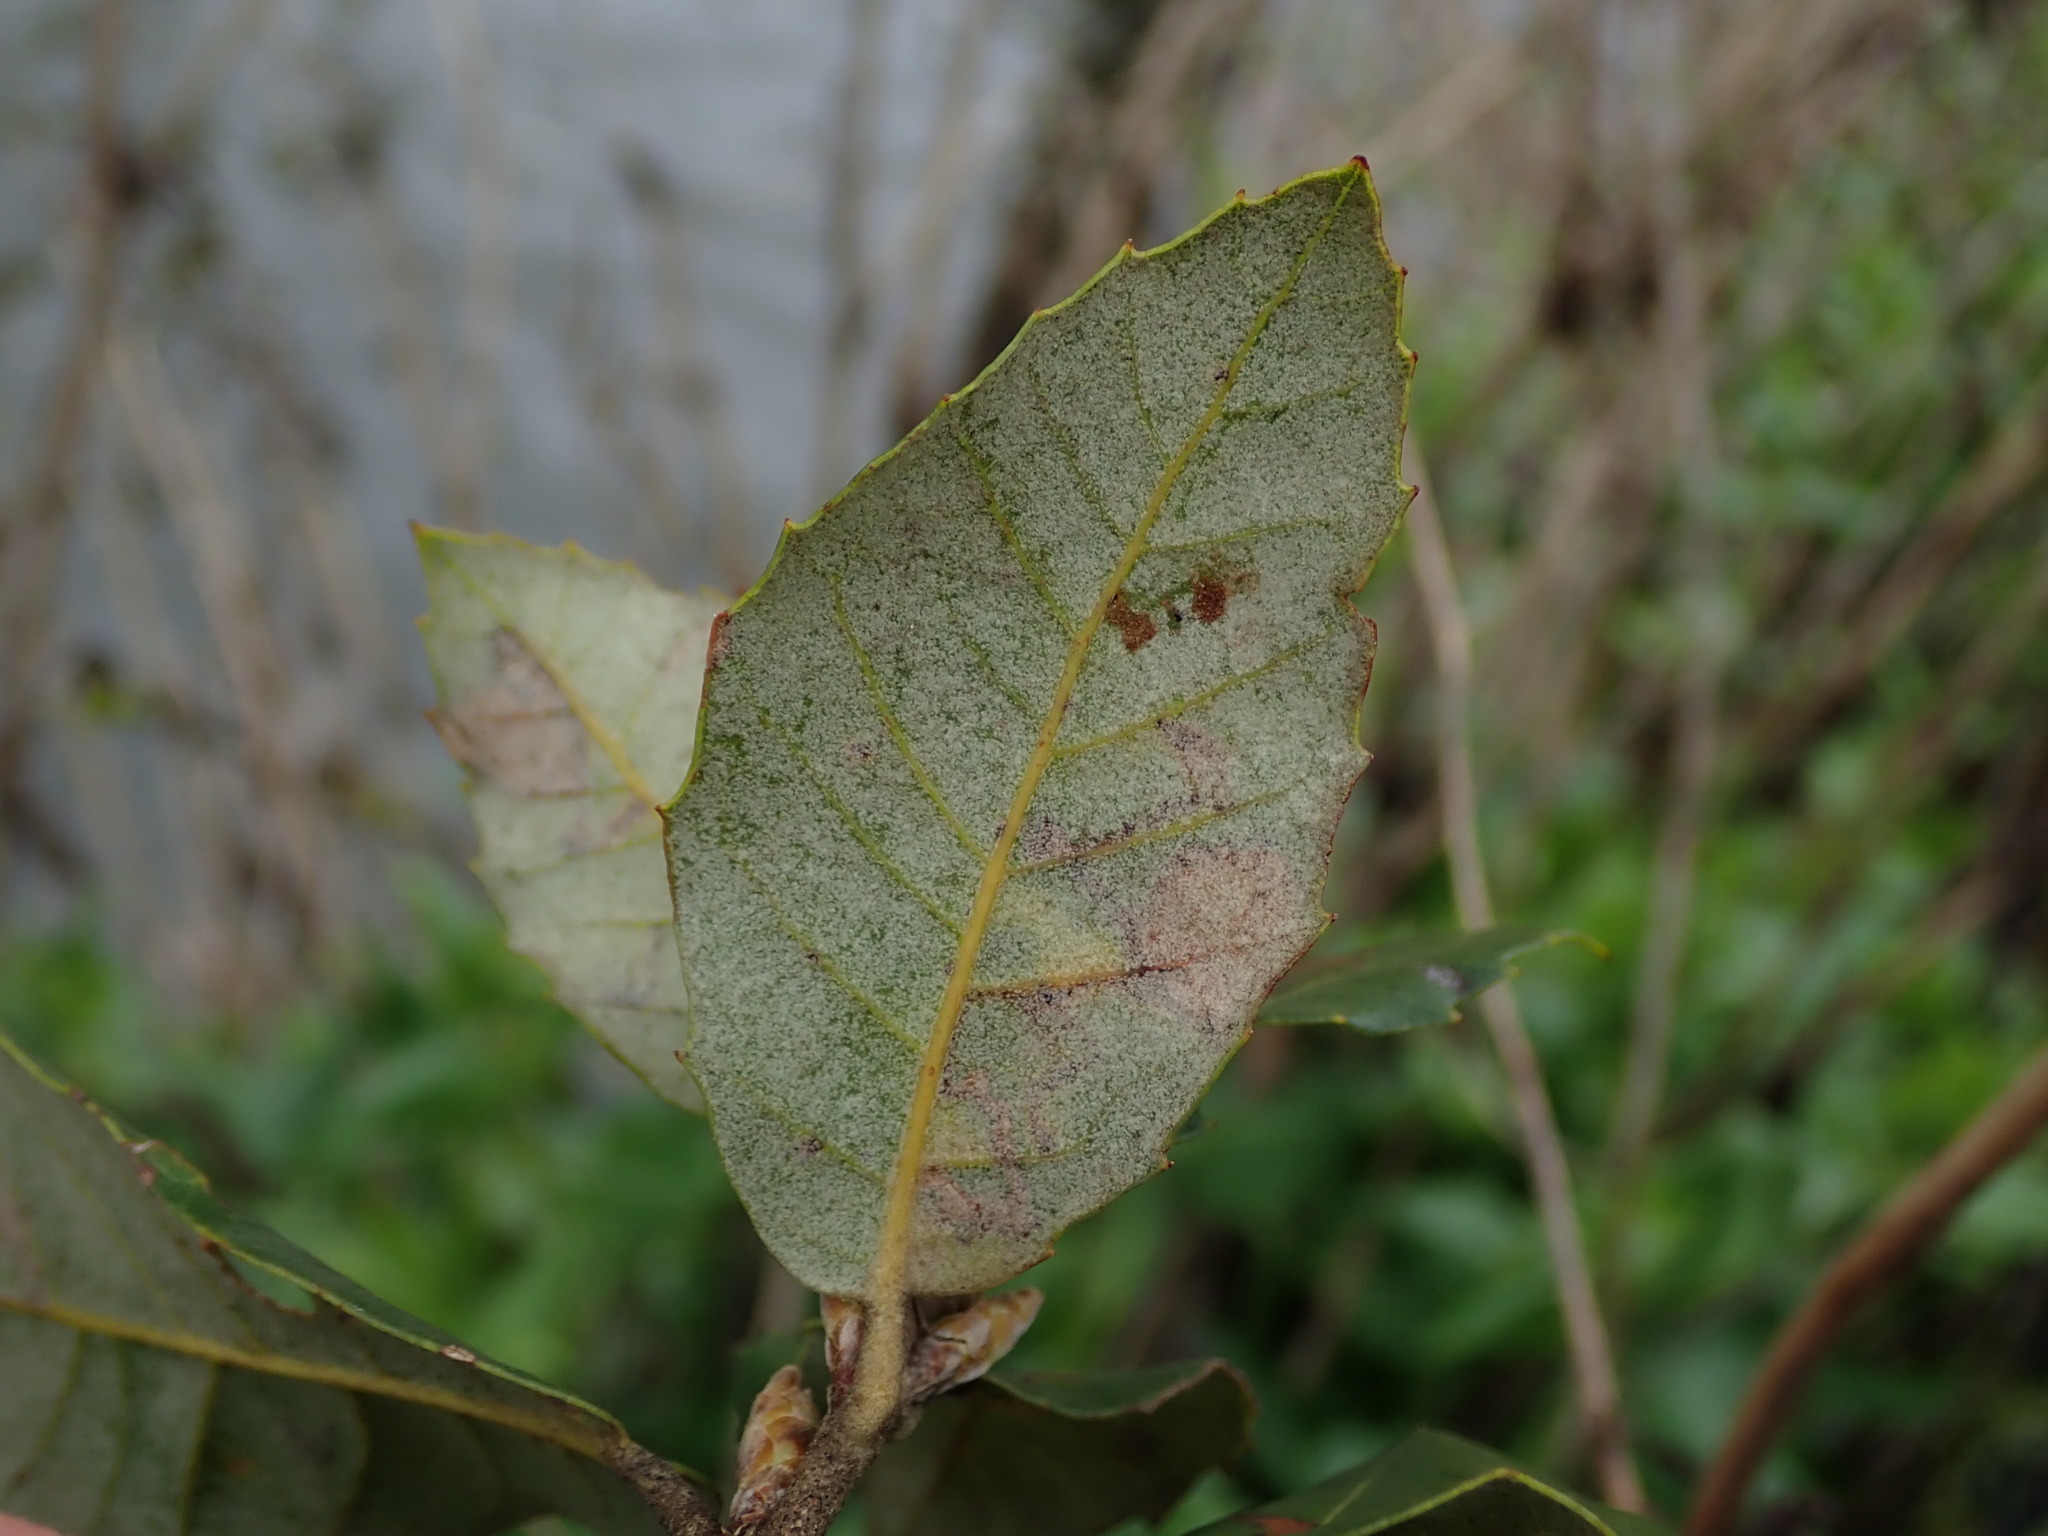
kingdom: Plantae
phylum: Tracheophyta
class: Magnoliopsida
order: Fagales
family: Fagaceae
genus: Quercus
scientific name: Quercus ilex
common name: Evergreen oak
